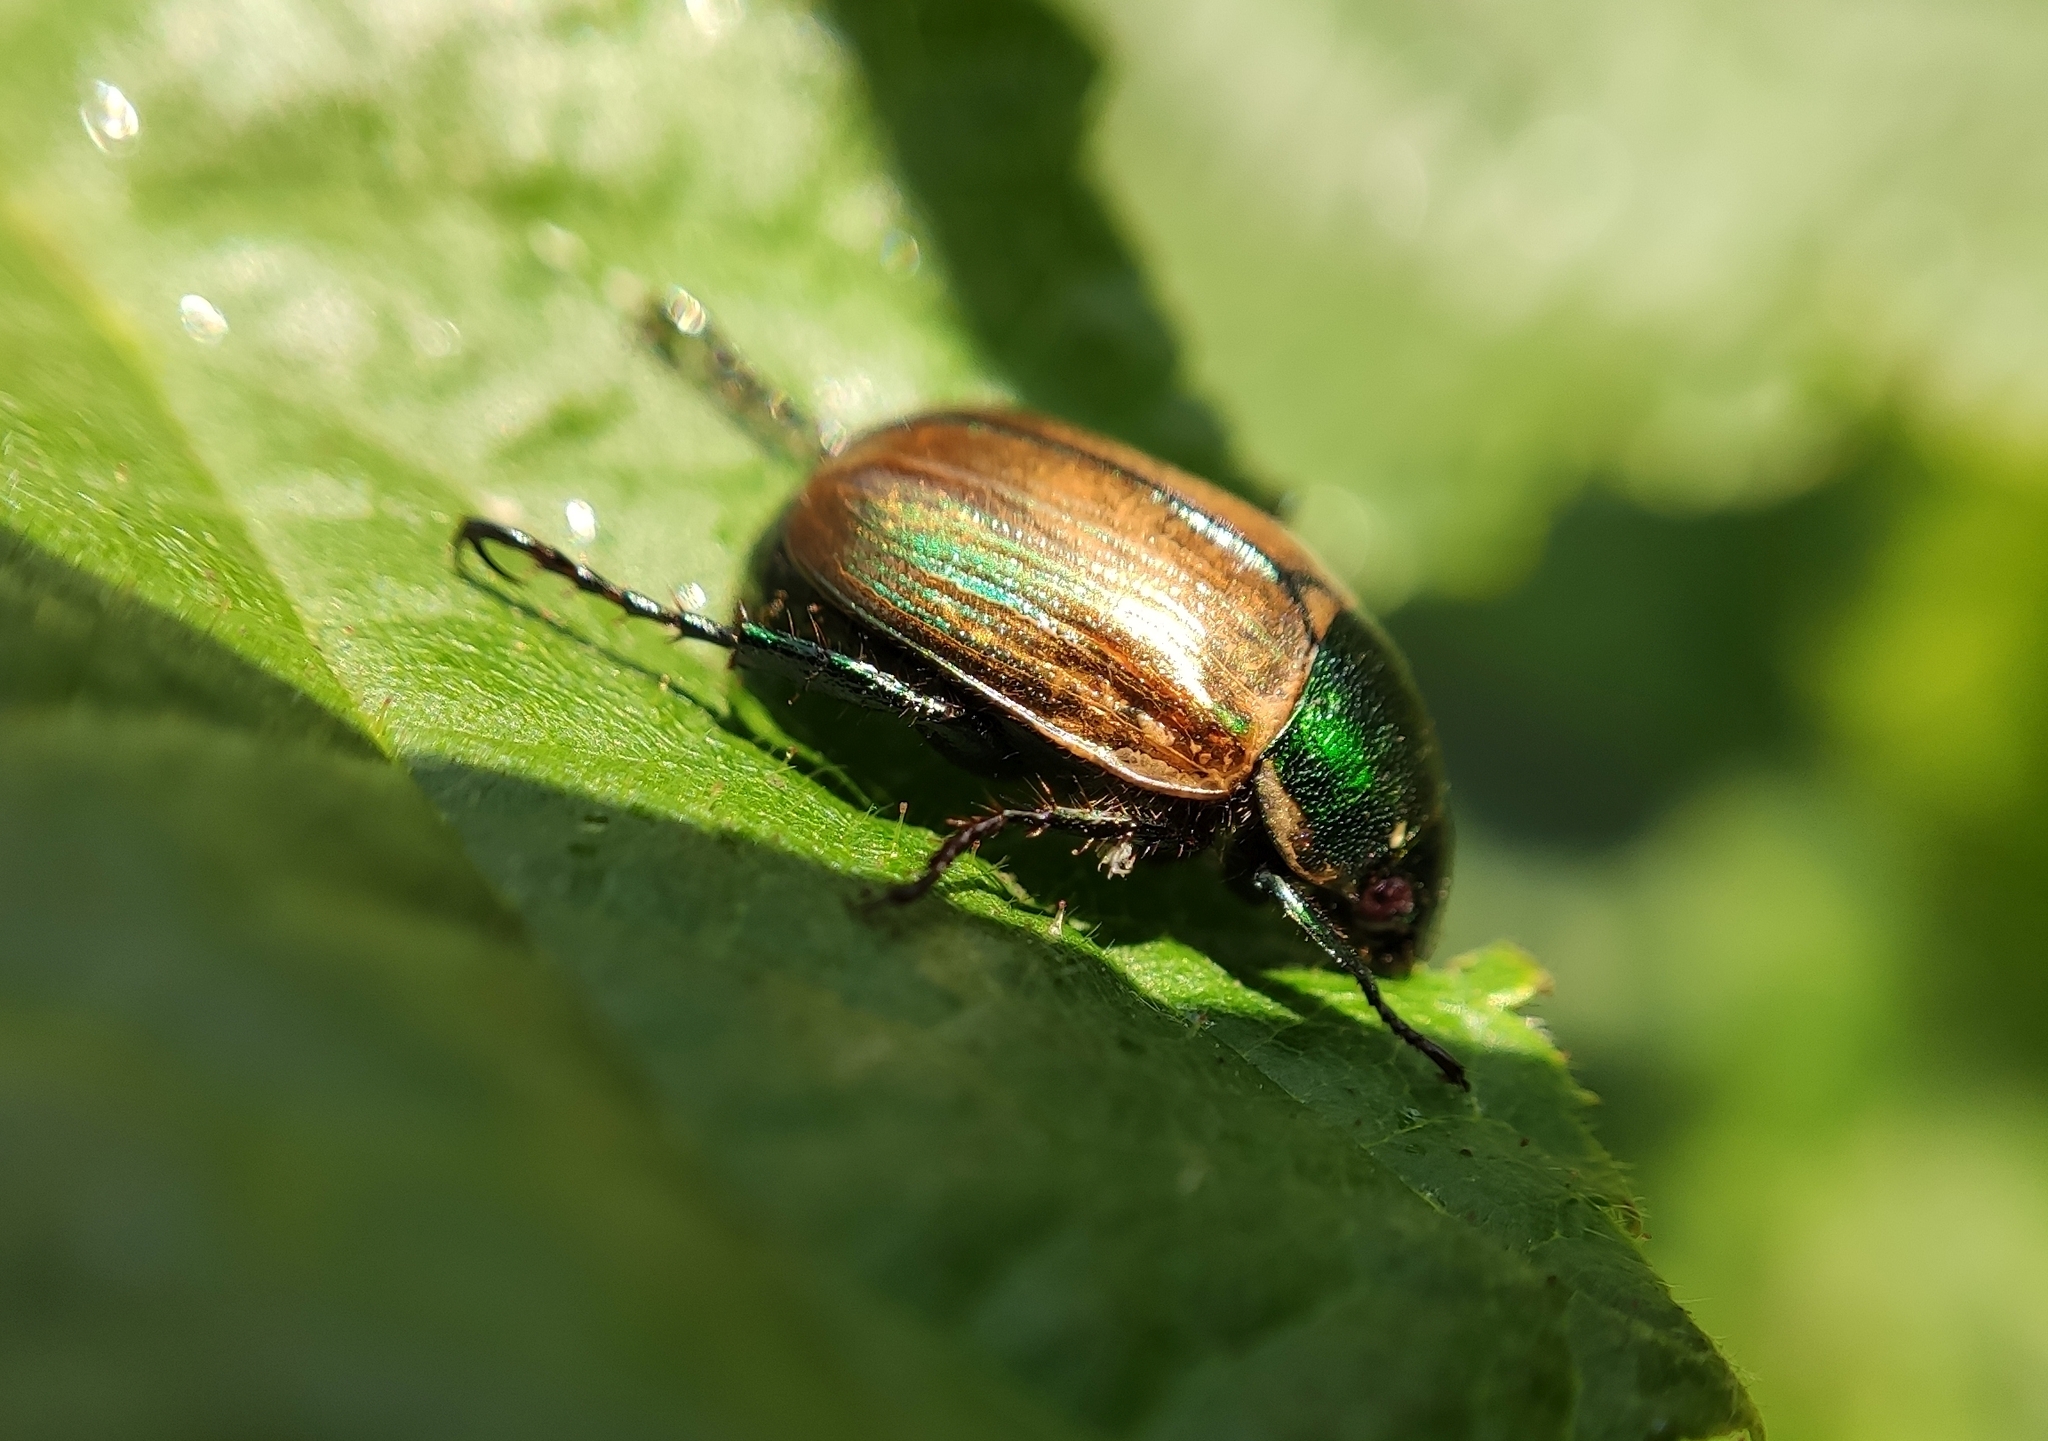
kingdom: Animalia
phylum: Arthropoda
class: Insecta
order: Coleoptera
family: Scarabaeidae
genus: Anomala
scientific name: Anomala dubia
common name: Dune chafer
